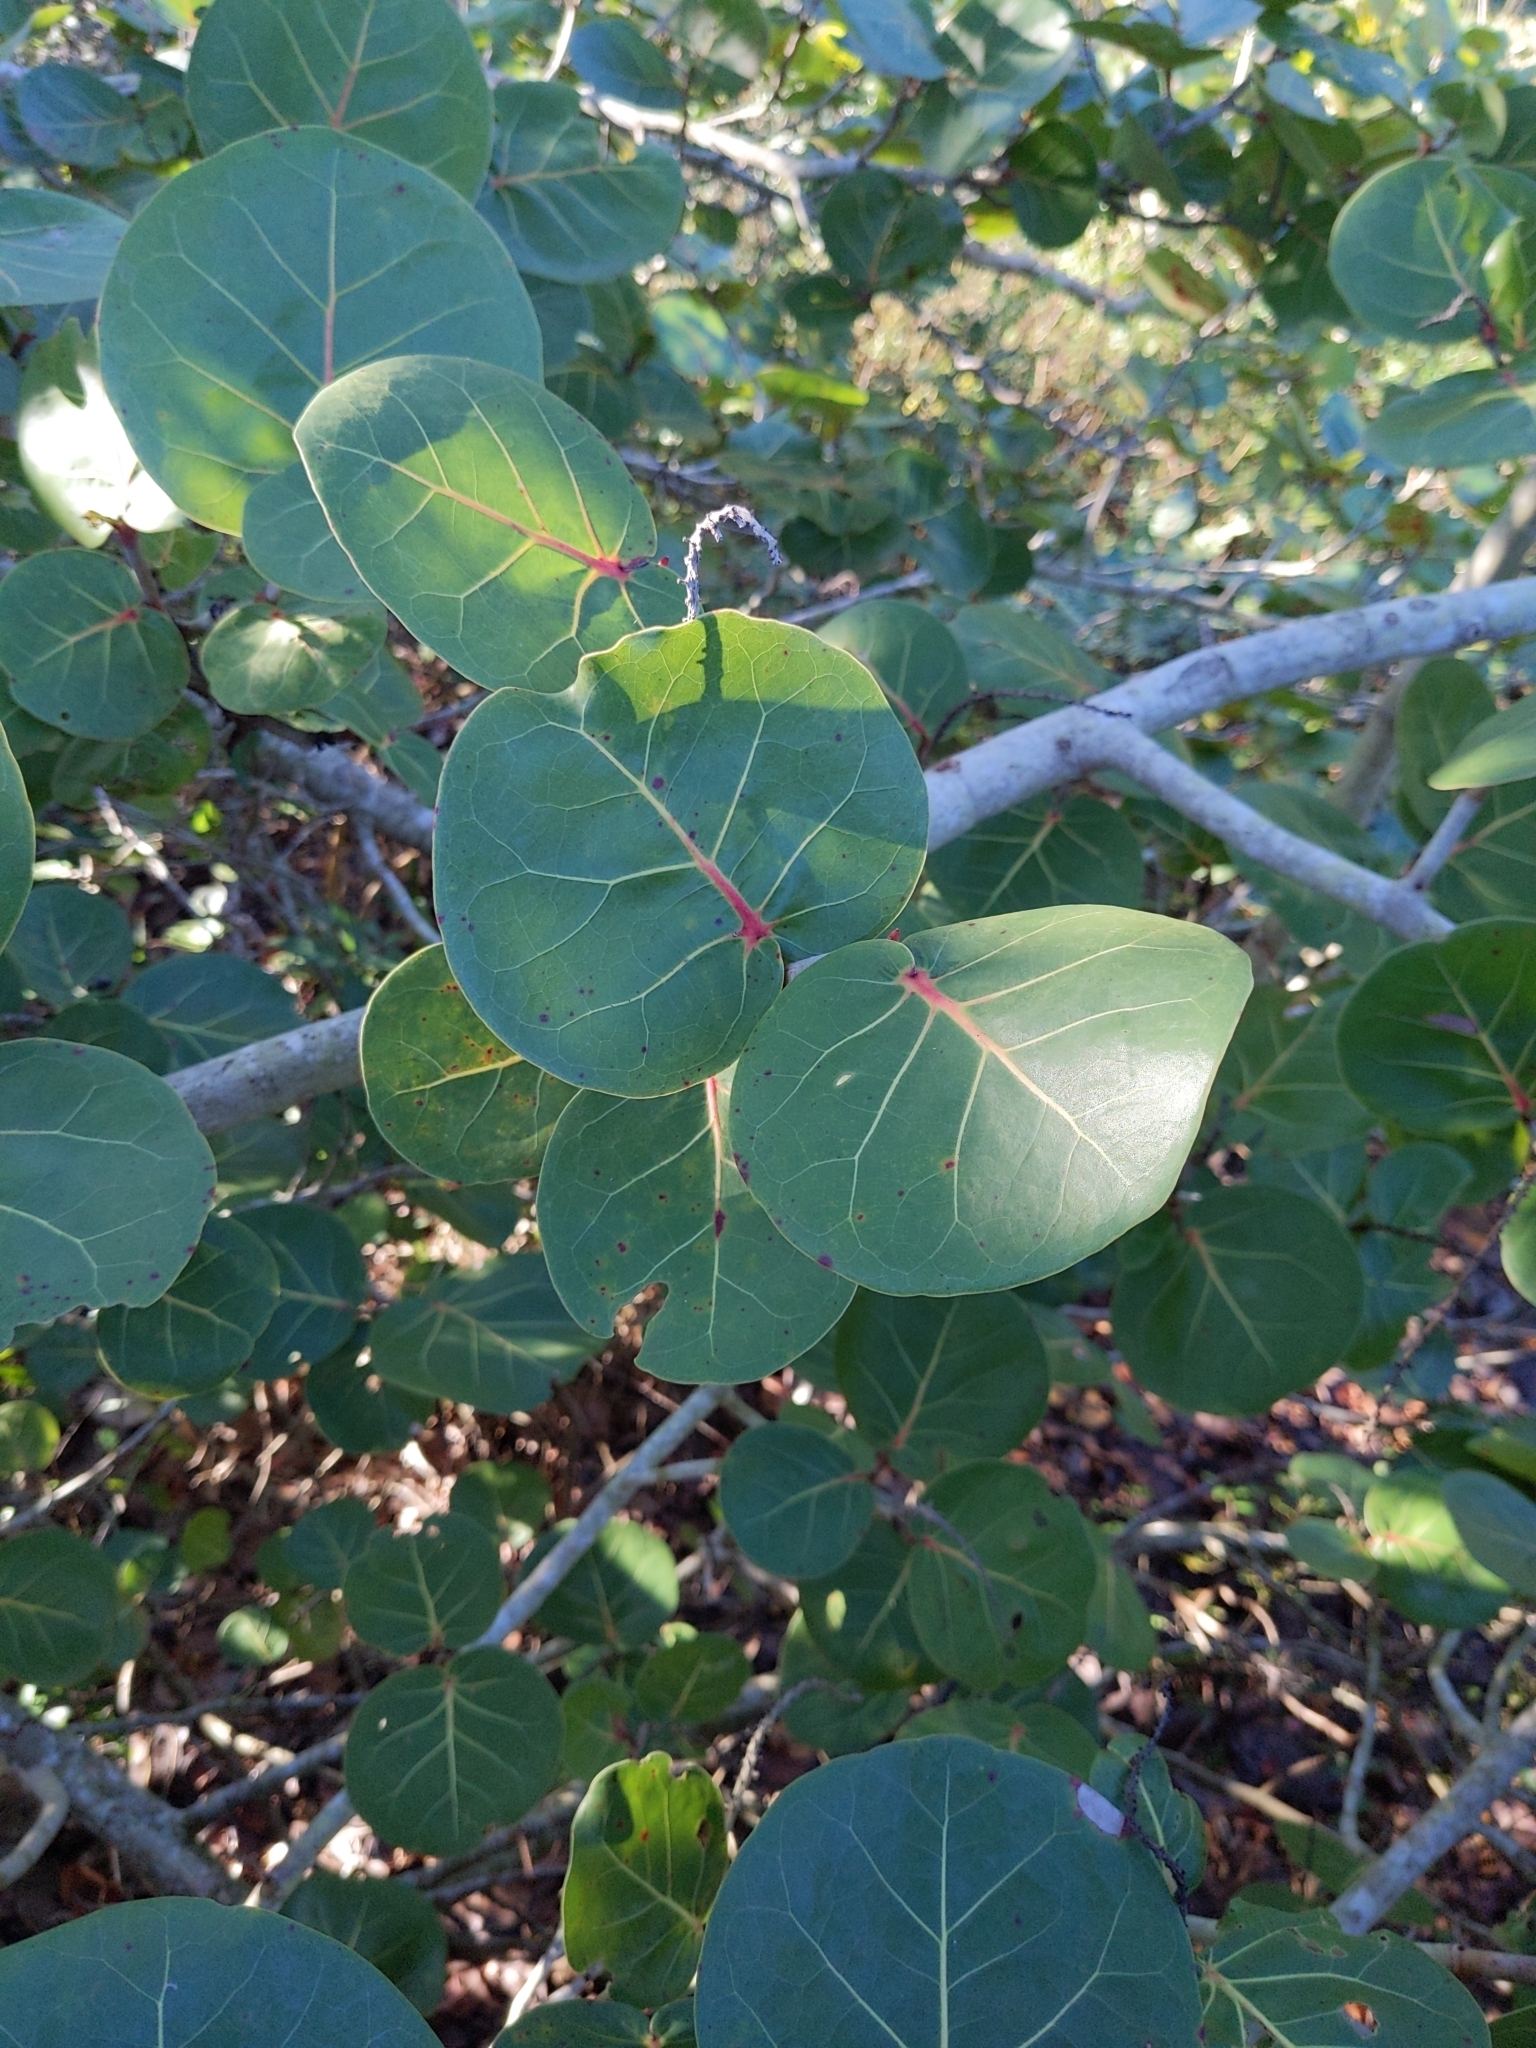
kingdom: Plantae
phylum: Tracheophyta
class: Magnoliopsida
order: Caryophyllales
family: Polygonaceae
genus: Coccoloba
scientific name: Coccoloba uvifera
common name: Seagrape
